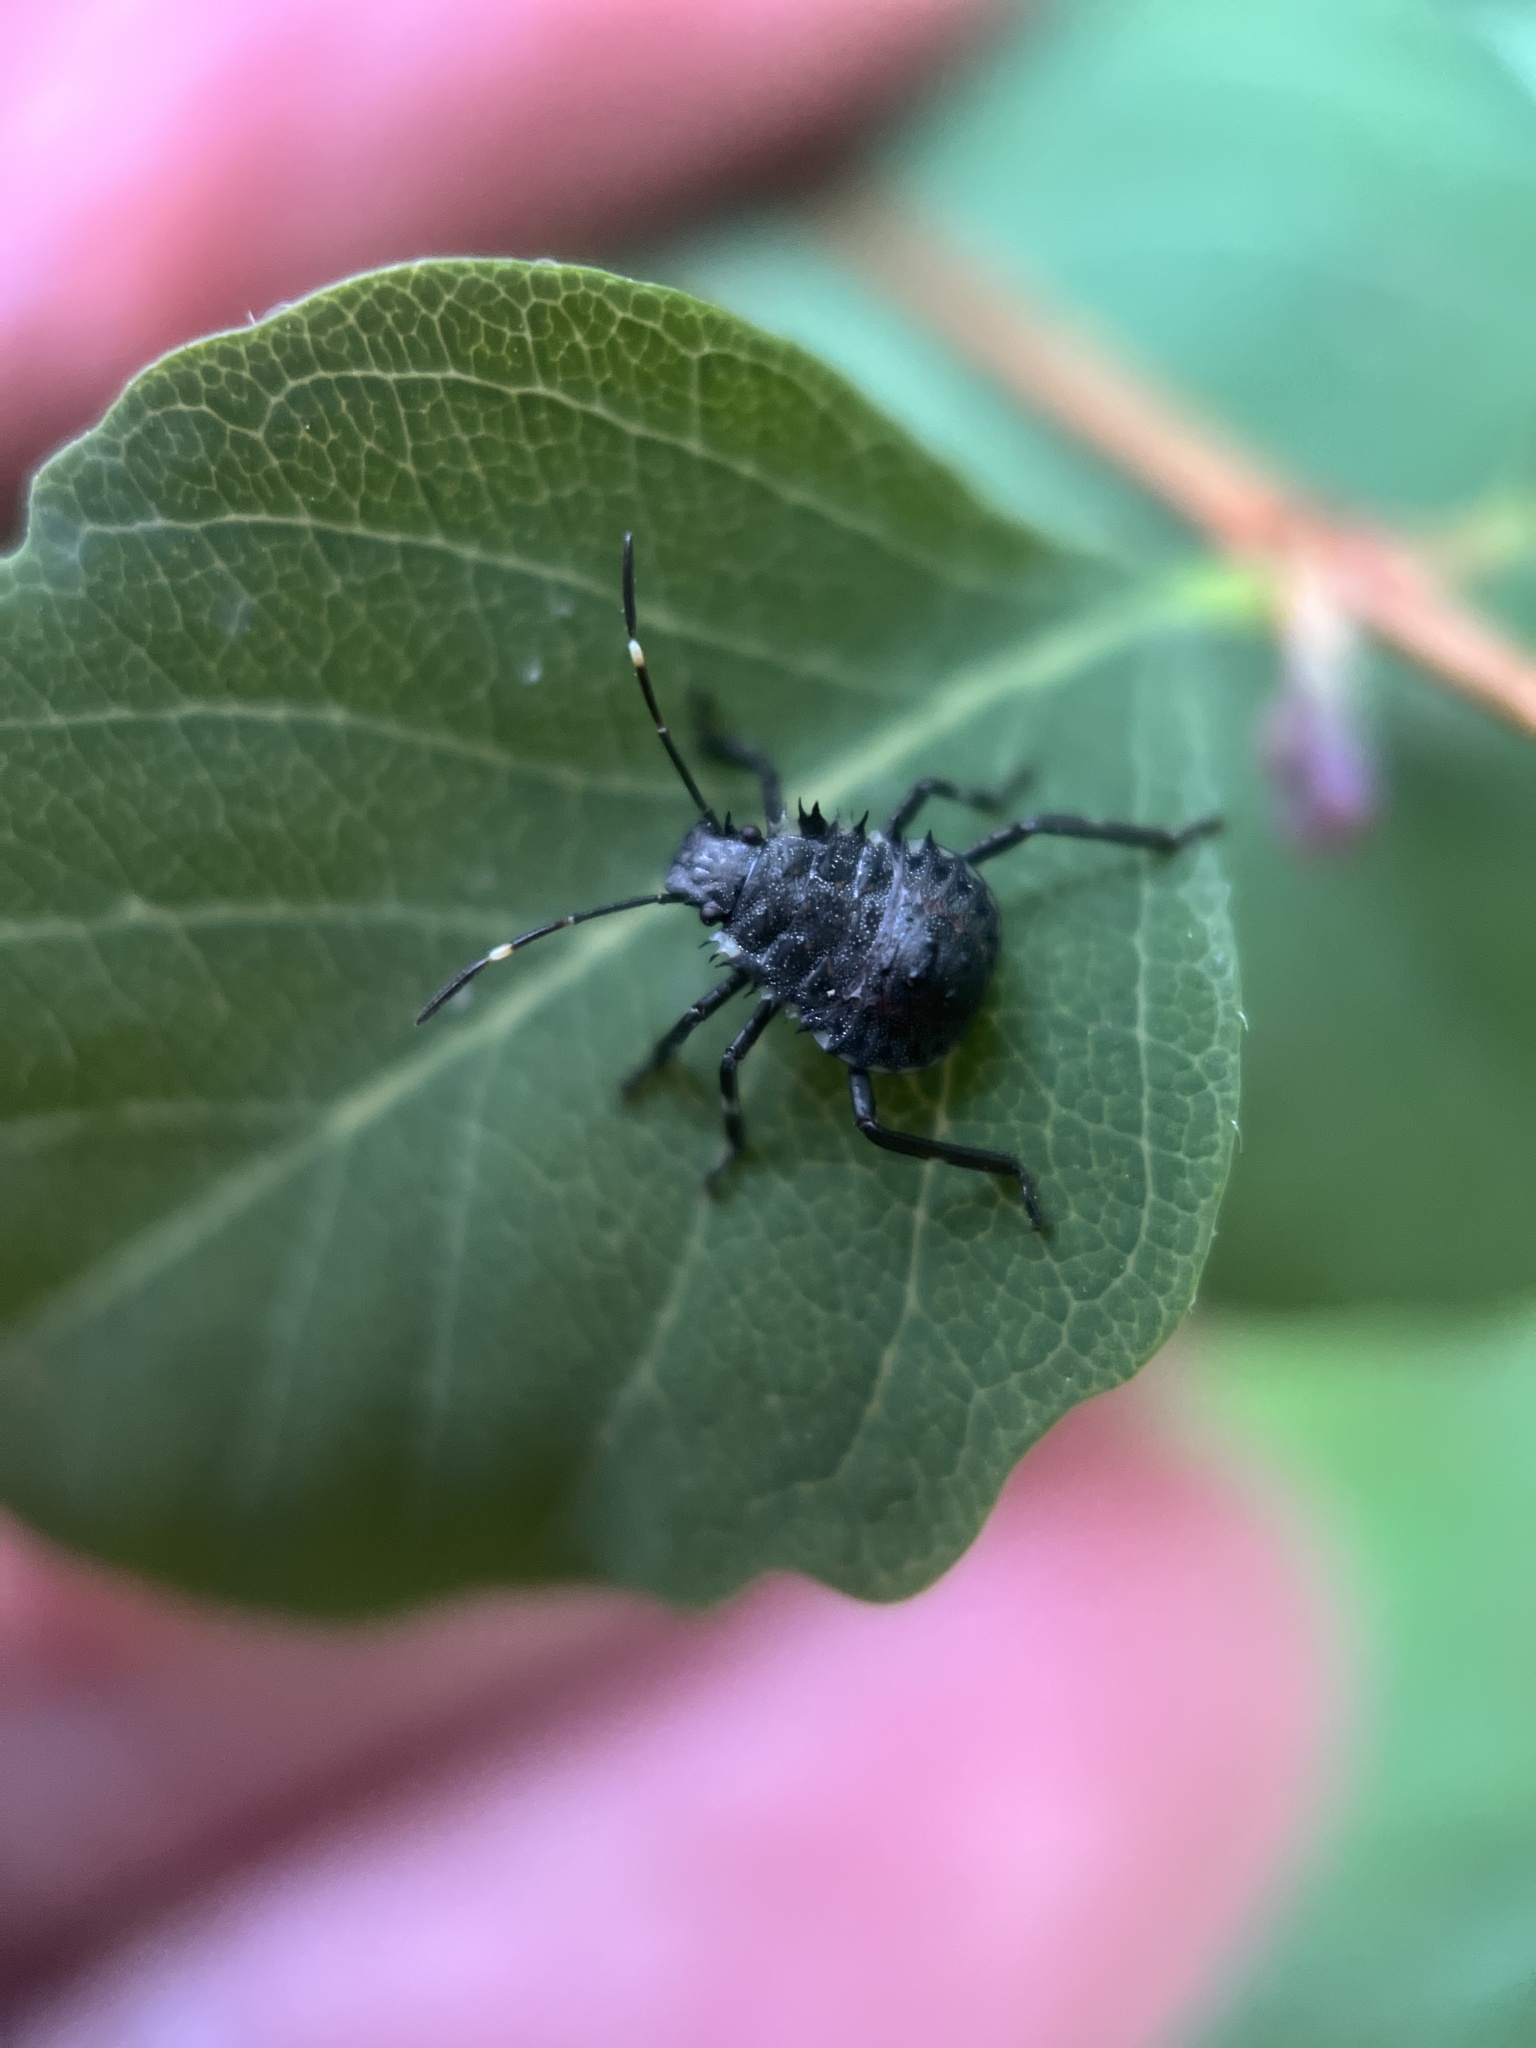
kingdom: Animalia
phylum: Arthropoda
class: Insecta
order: Hemiptera
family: Pentatomidae
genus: Halyomorpha
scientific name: Halyomorpha halys
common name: Brown marmorated stink bug
